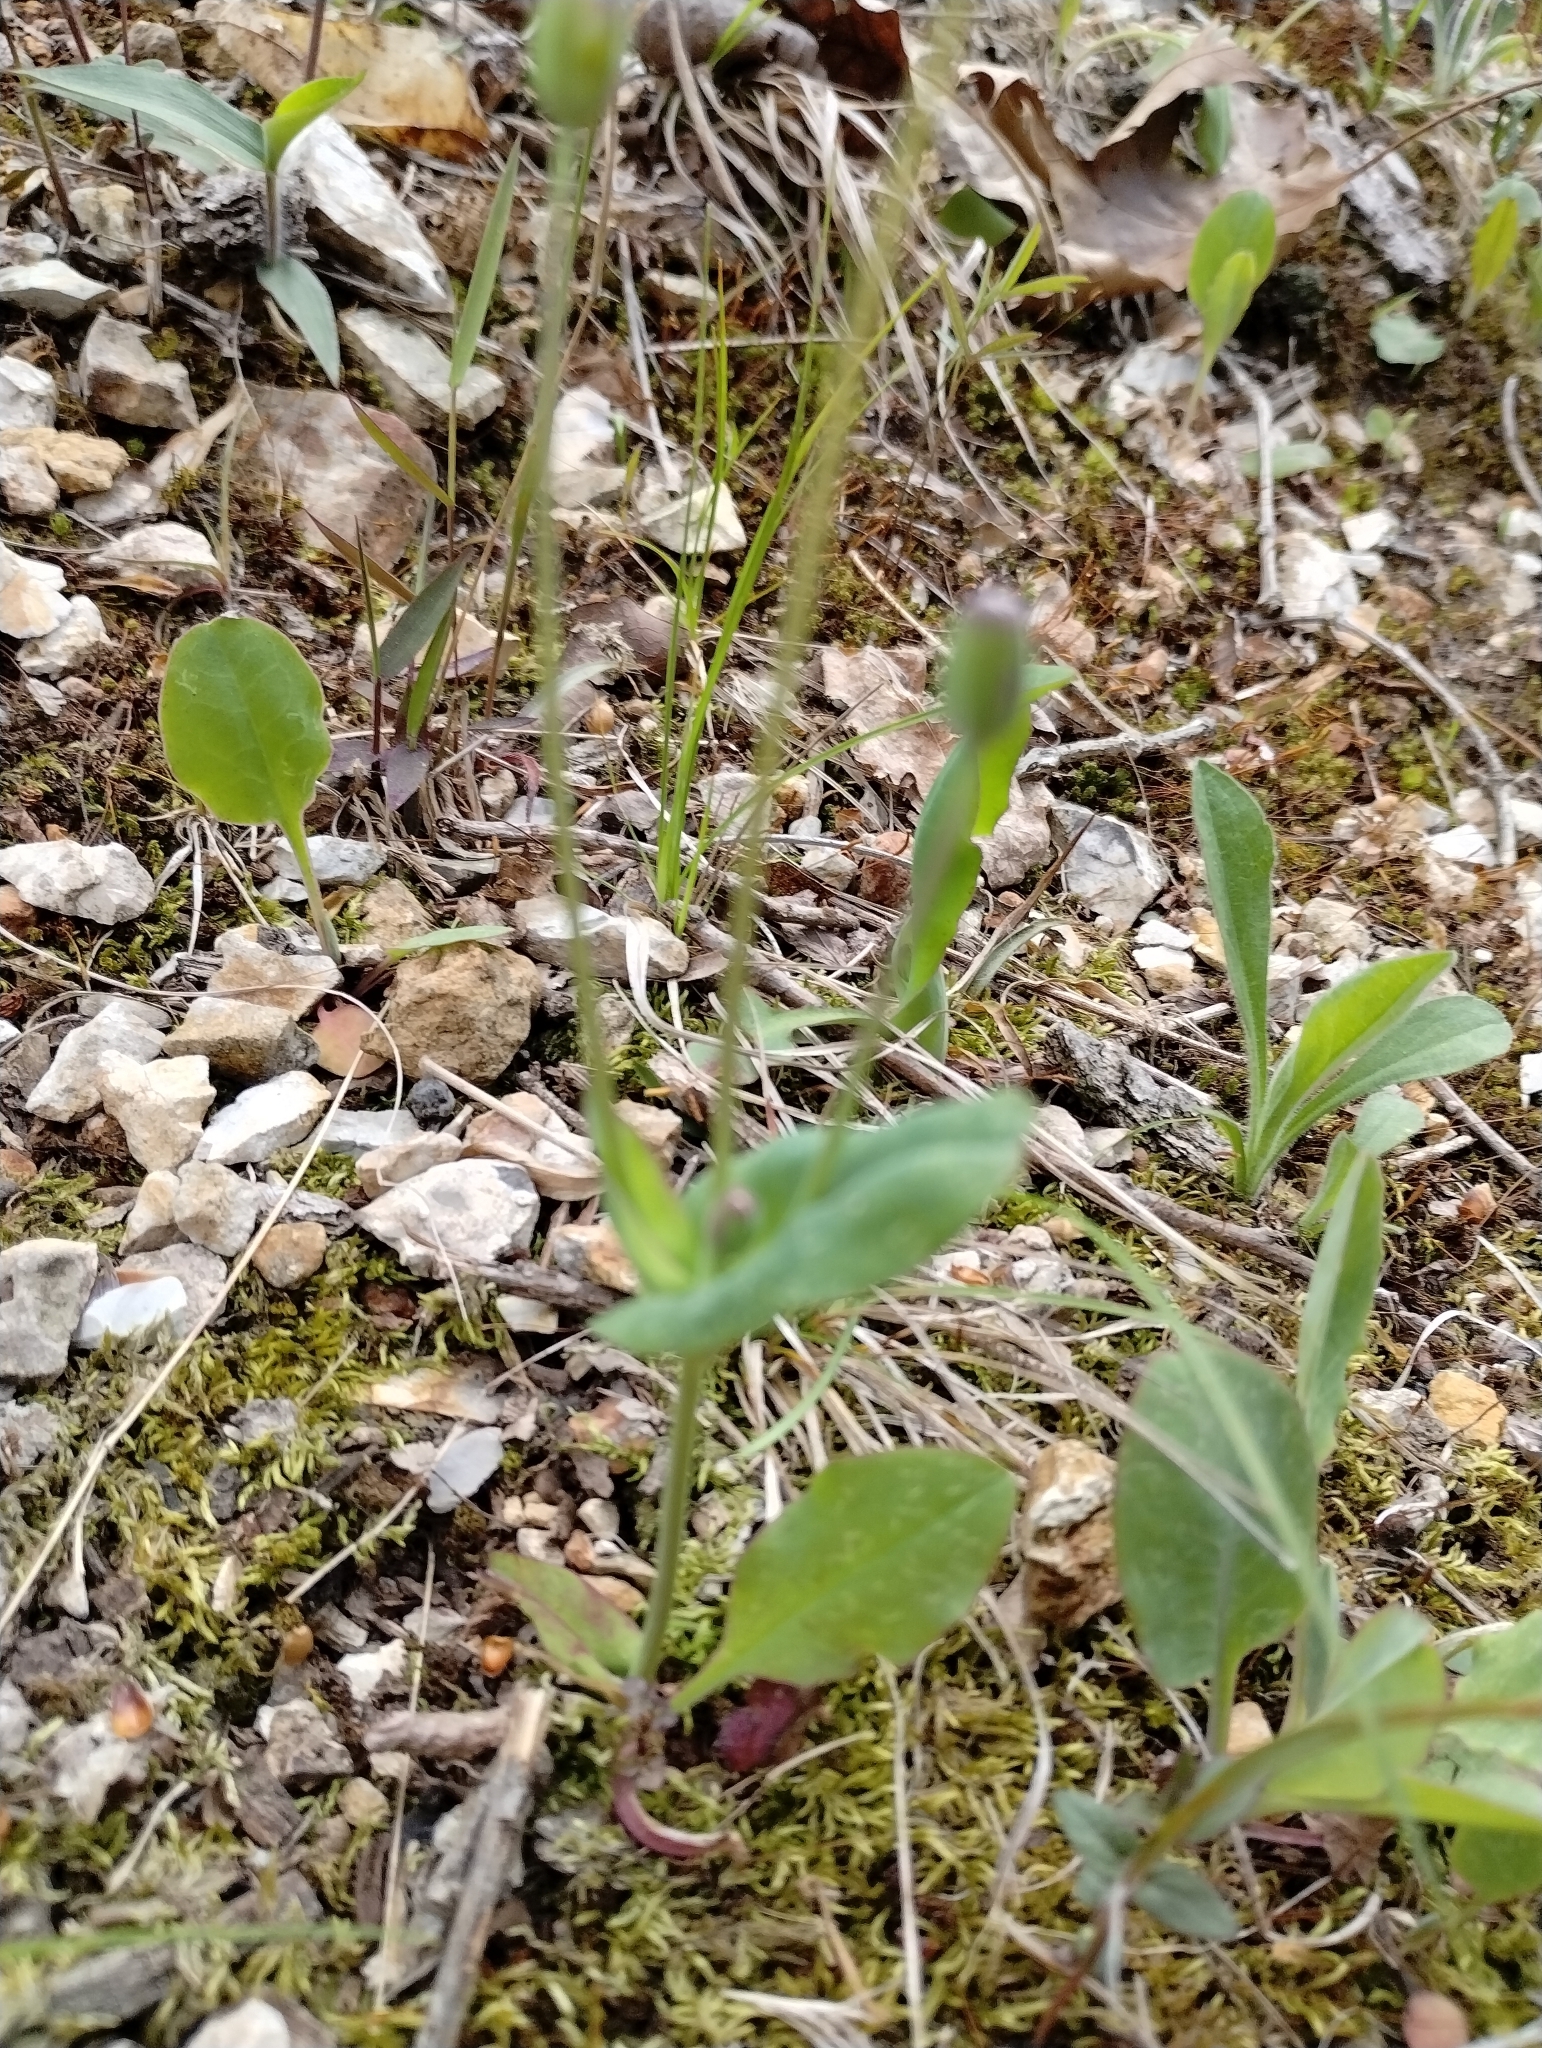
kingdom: Plantae
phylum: Tracheophyta
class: Magnoliopsida
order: Asterales
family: Asteraceae
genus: Krigia
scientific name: Krigia biflora
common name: Orange dwarf-dandelion
